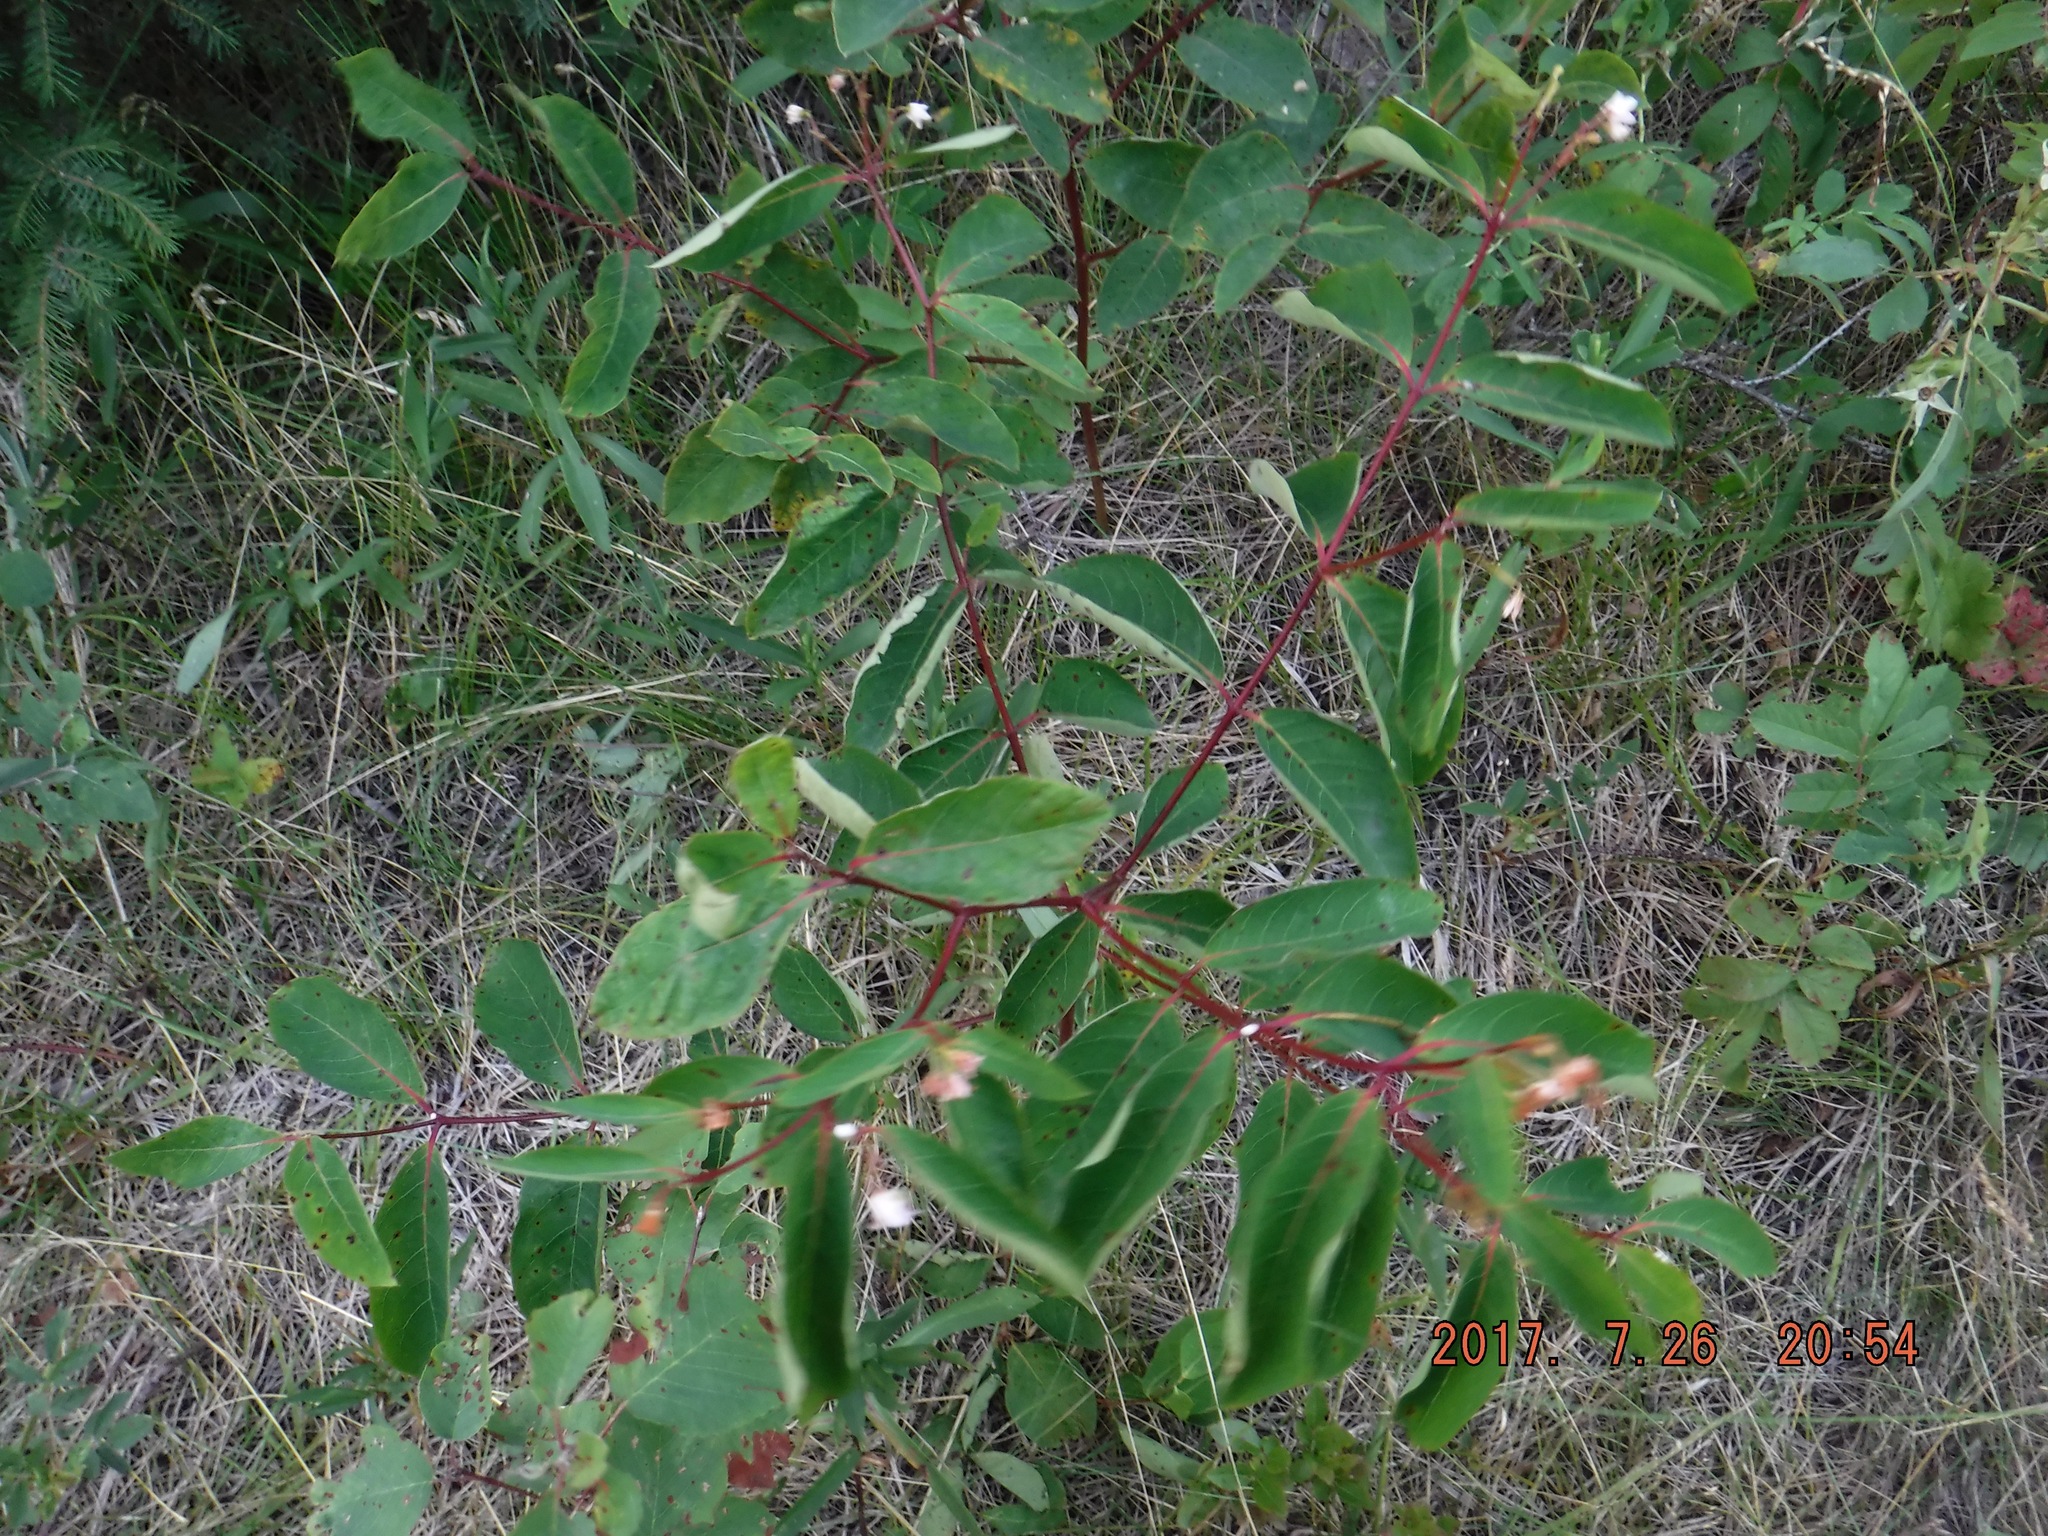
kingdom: Plantae
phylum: Tracheophyta
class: Magnoliopsida
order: Gentianales
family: Apocynaceae
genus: Apocynum
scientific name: Apocynum androsaemifolium
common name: Spreading dogbane
